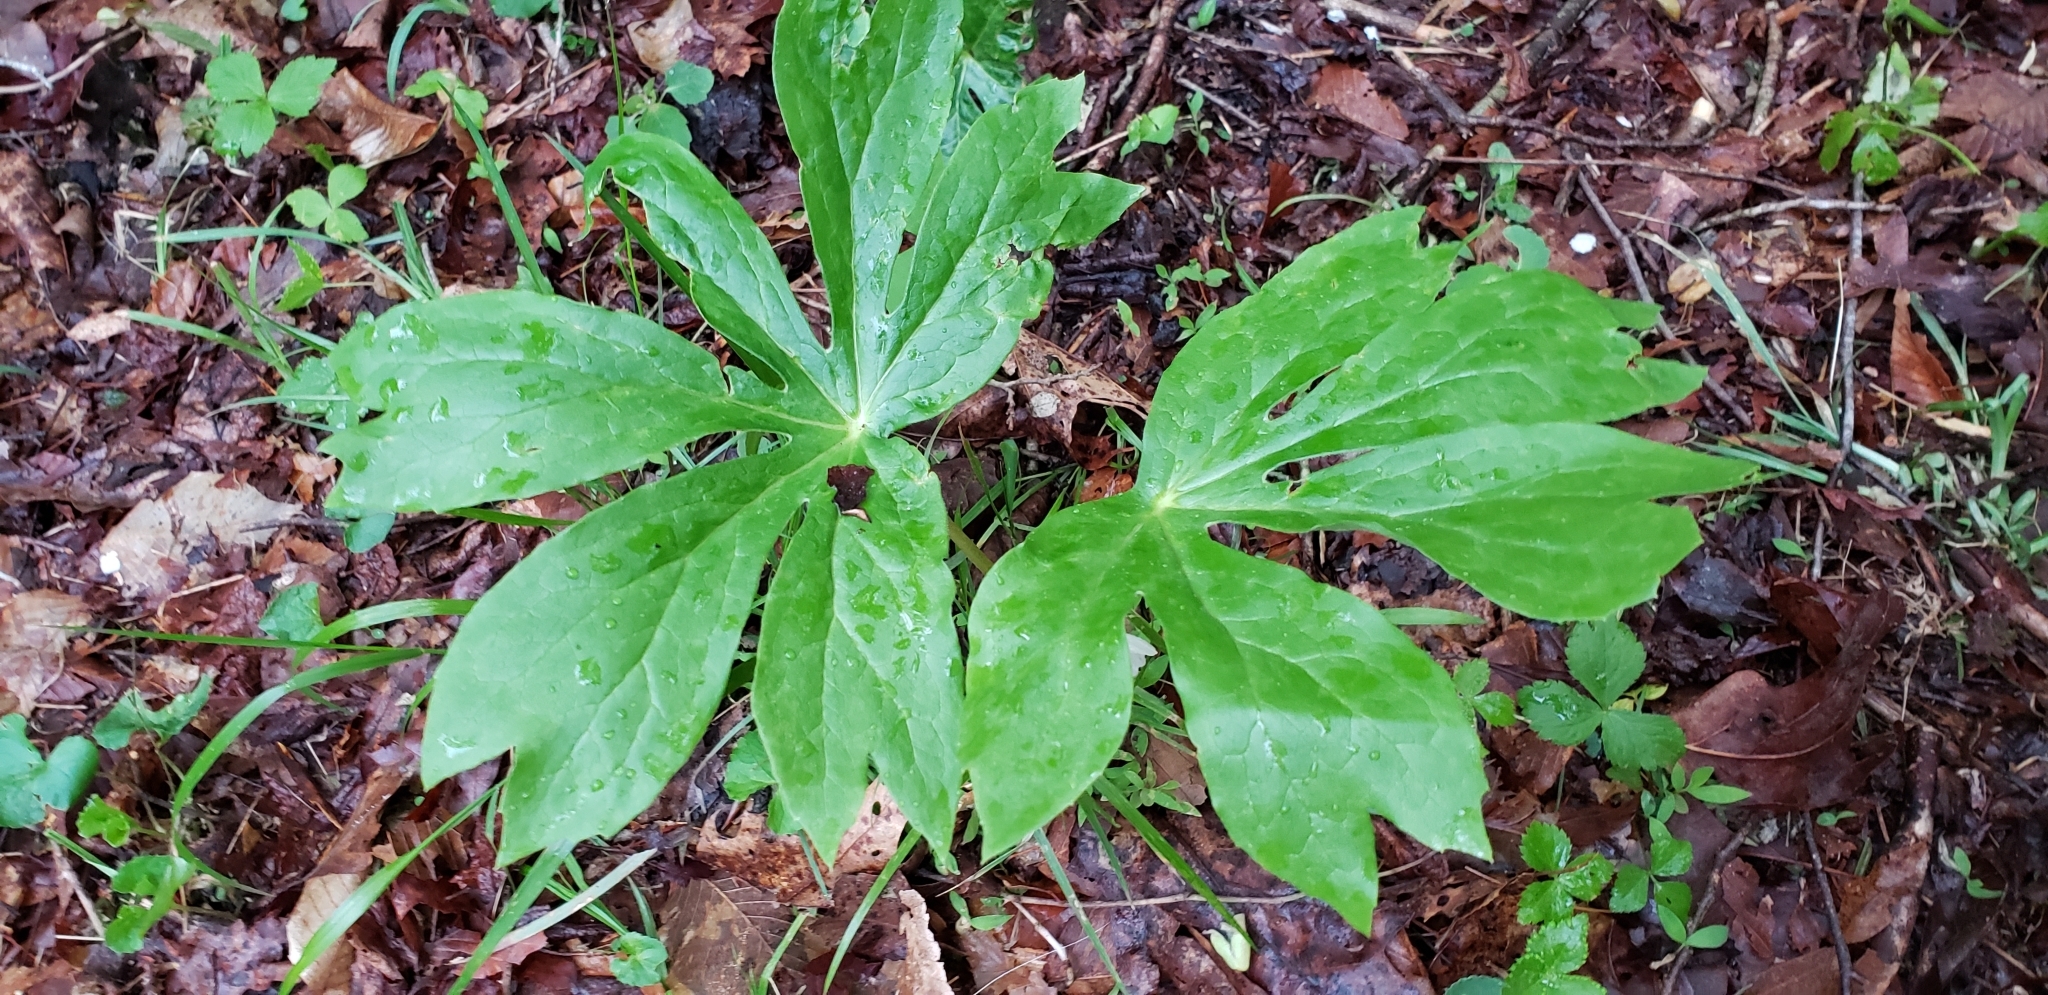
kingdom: Plantae
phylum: Tracheophyta
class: Magnoliopsida
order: Ranunculales
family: Berberidaceae
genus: Podophyllum
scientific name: Podophyllum peltatum
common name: Wild mandrake
